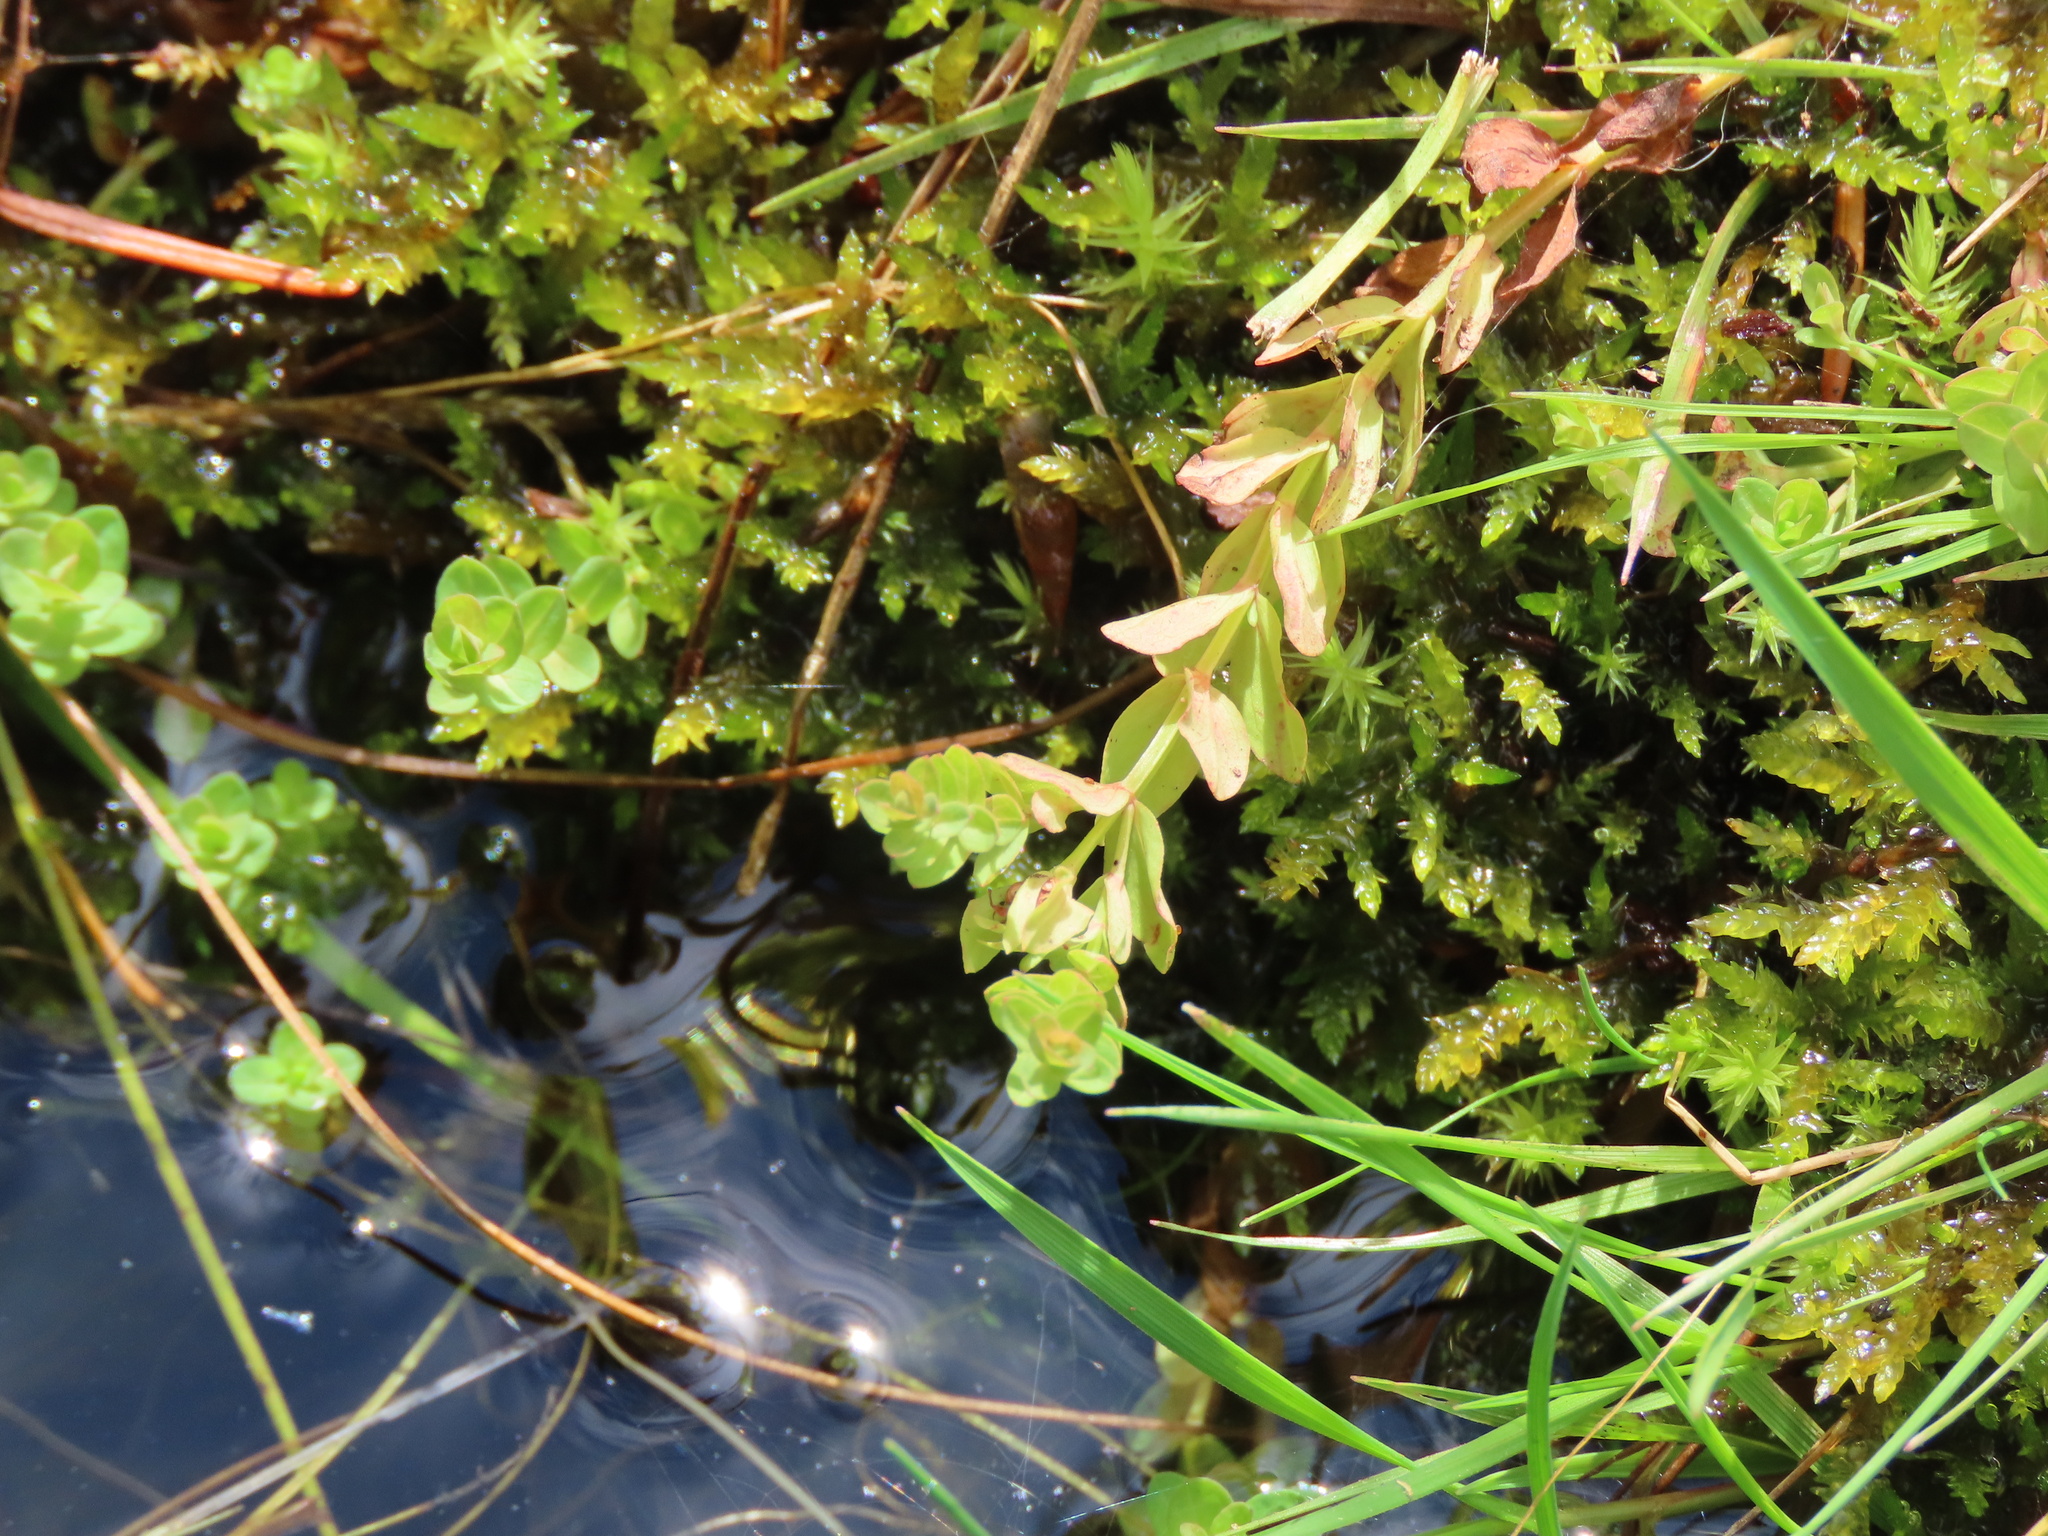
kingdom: Plantae
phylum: Tracheophyta
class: Magnoliopsida
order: Malpighiales
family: Hypericaceae
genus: Hypericum
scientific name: Hypericum anagalloides
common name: Bog st. john's-wort
